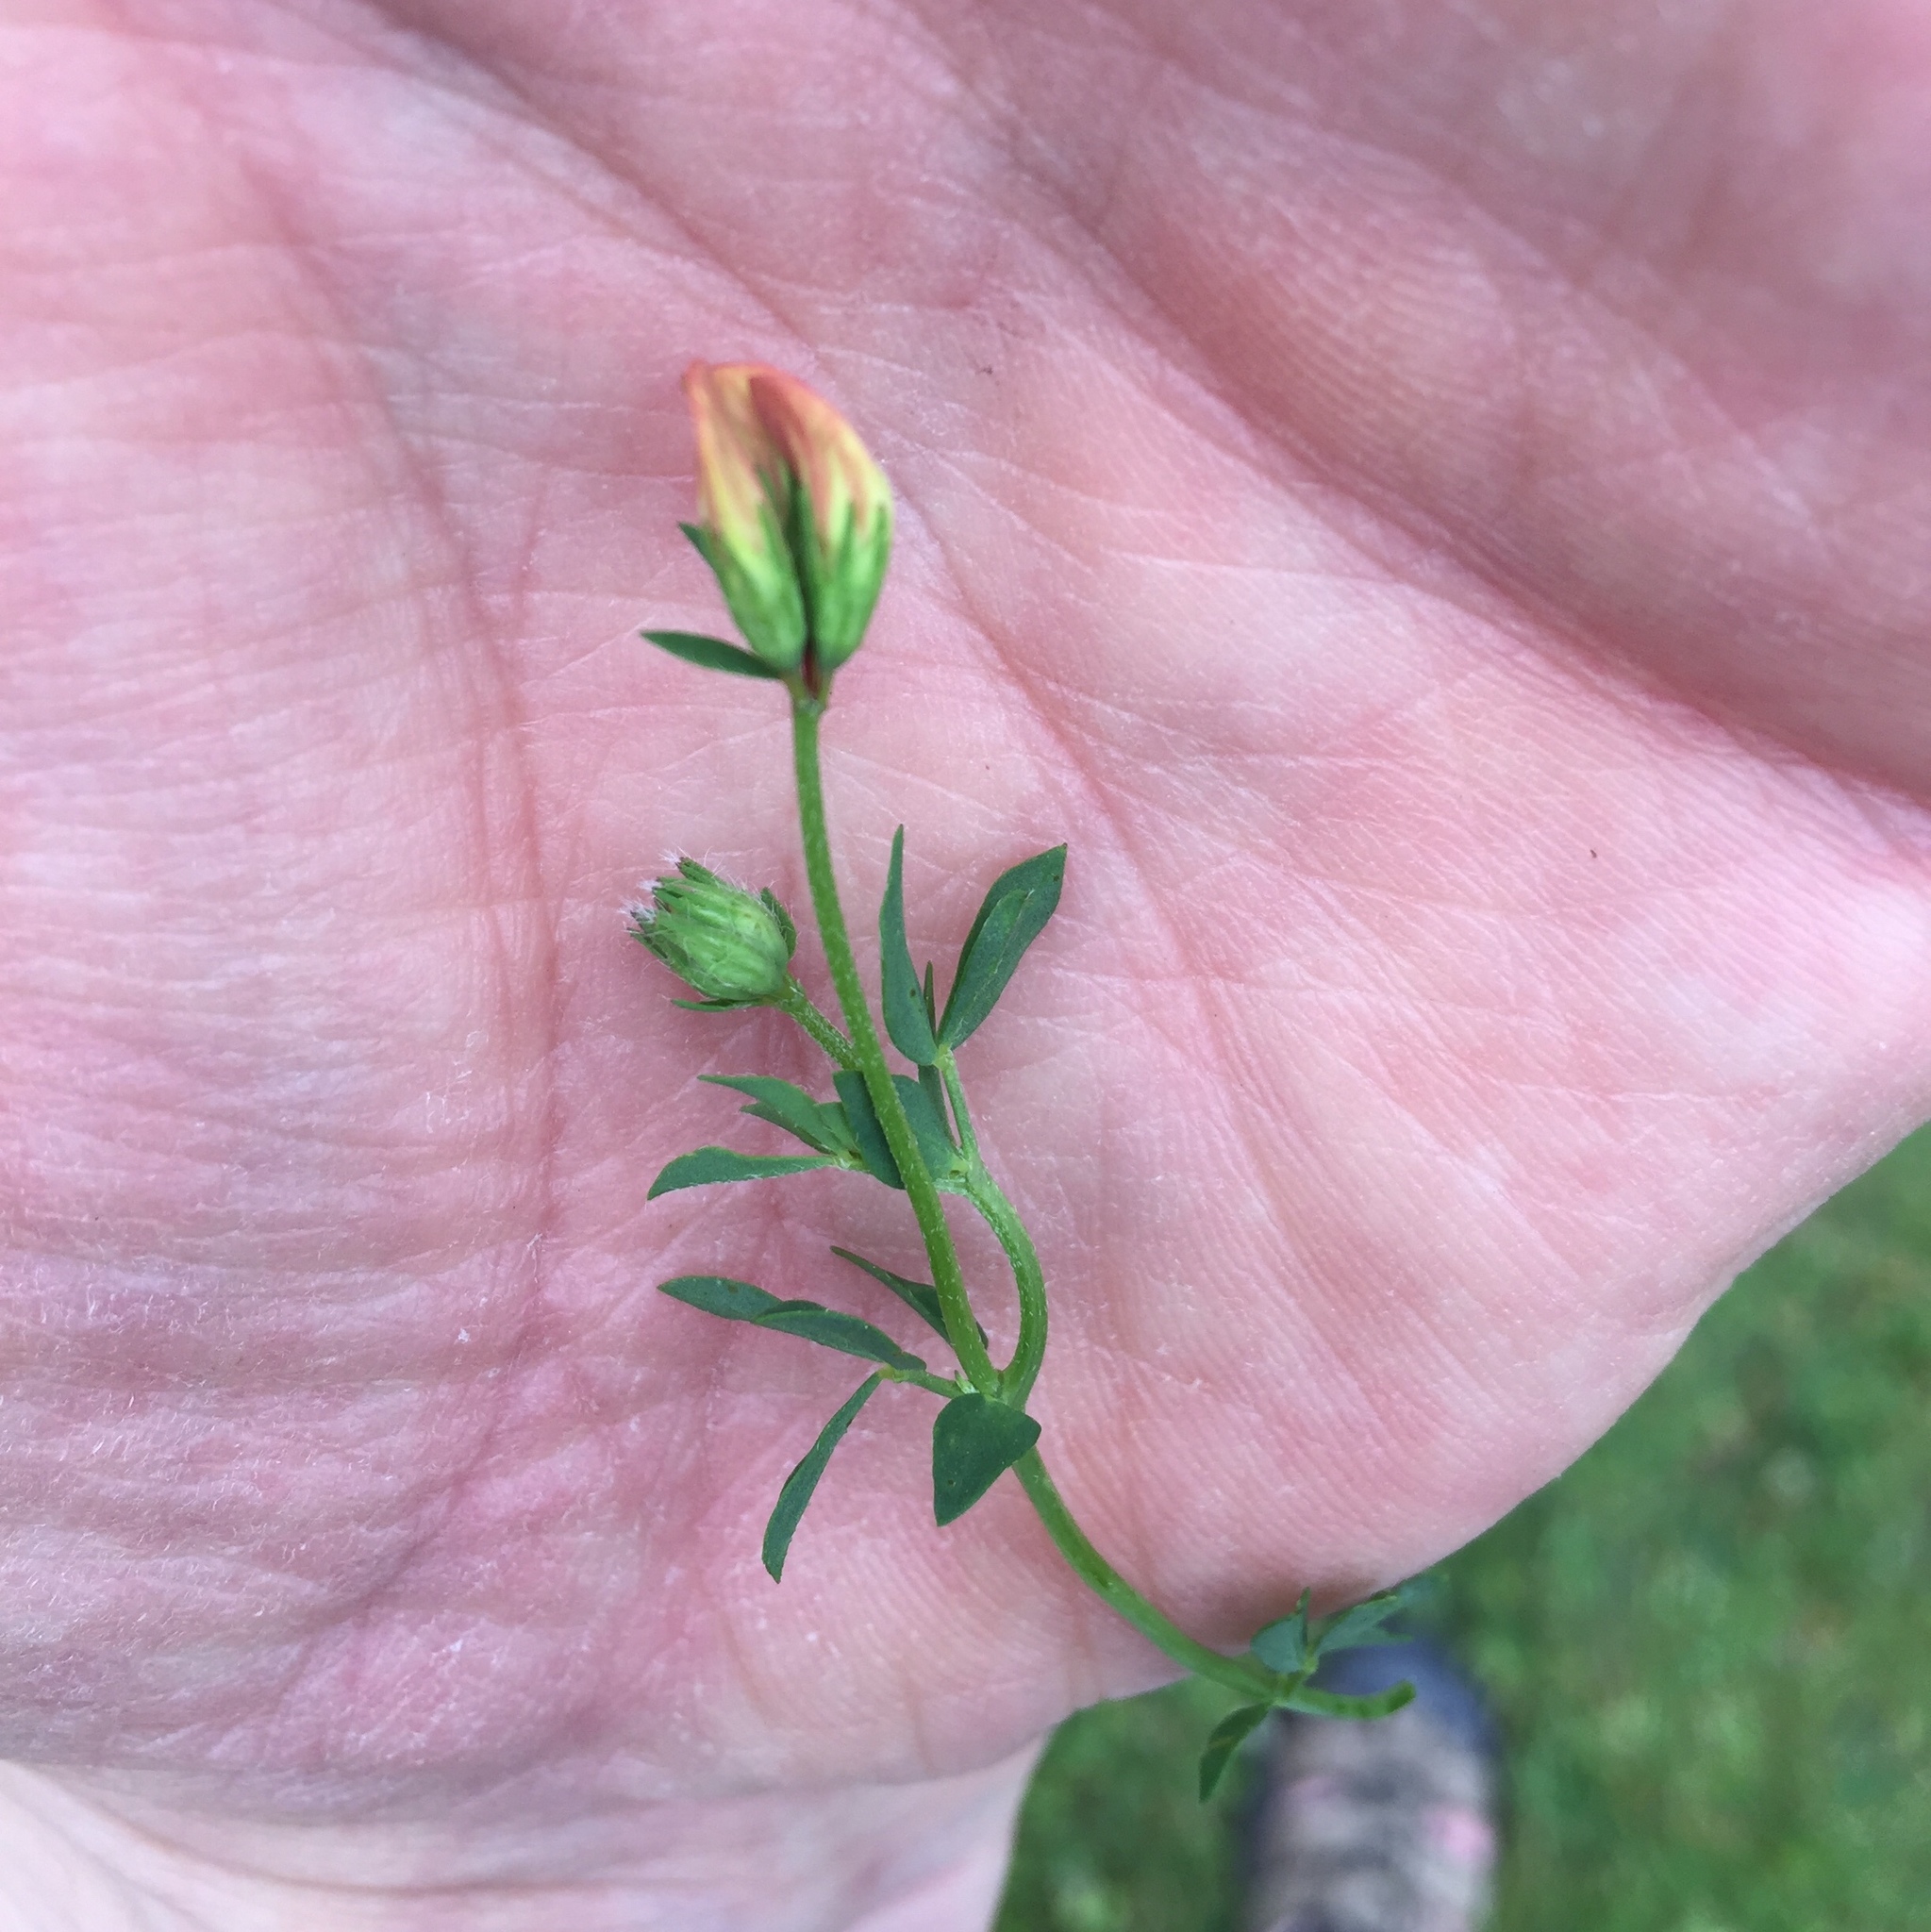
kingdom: Plantae
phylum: Tracheophyta
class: Magnoliopsida
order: Fabales
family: Fabaceae
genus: Lotus
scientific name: Lotus corniculatus
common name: Common bird's-foot-trefoil
